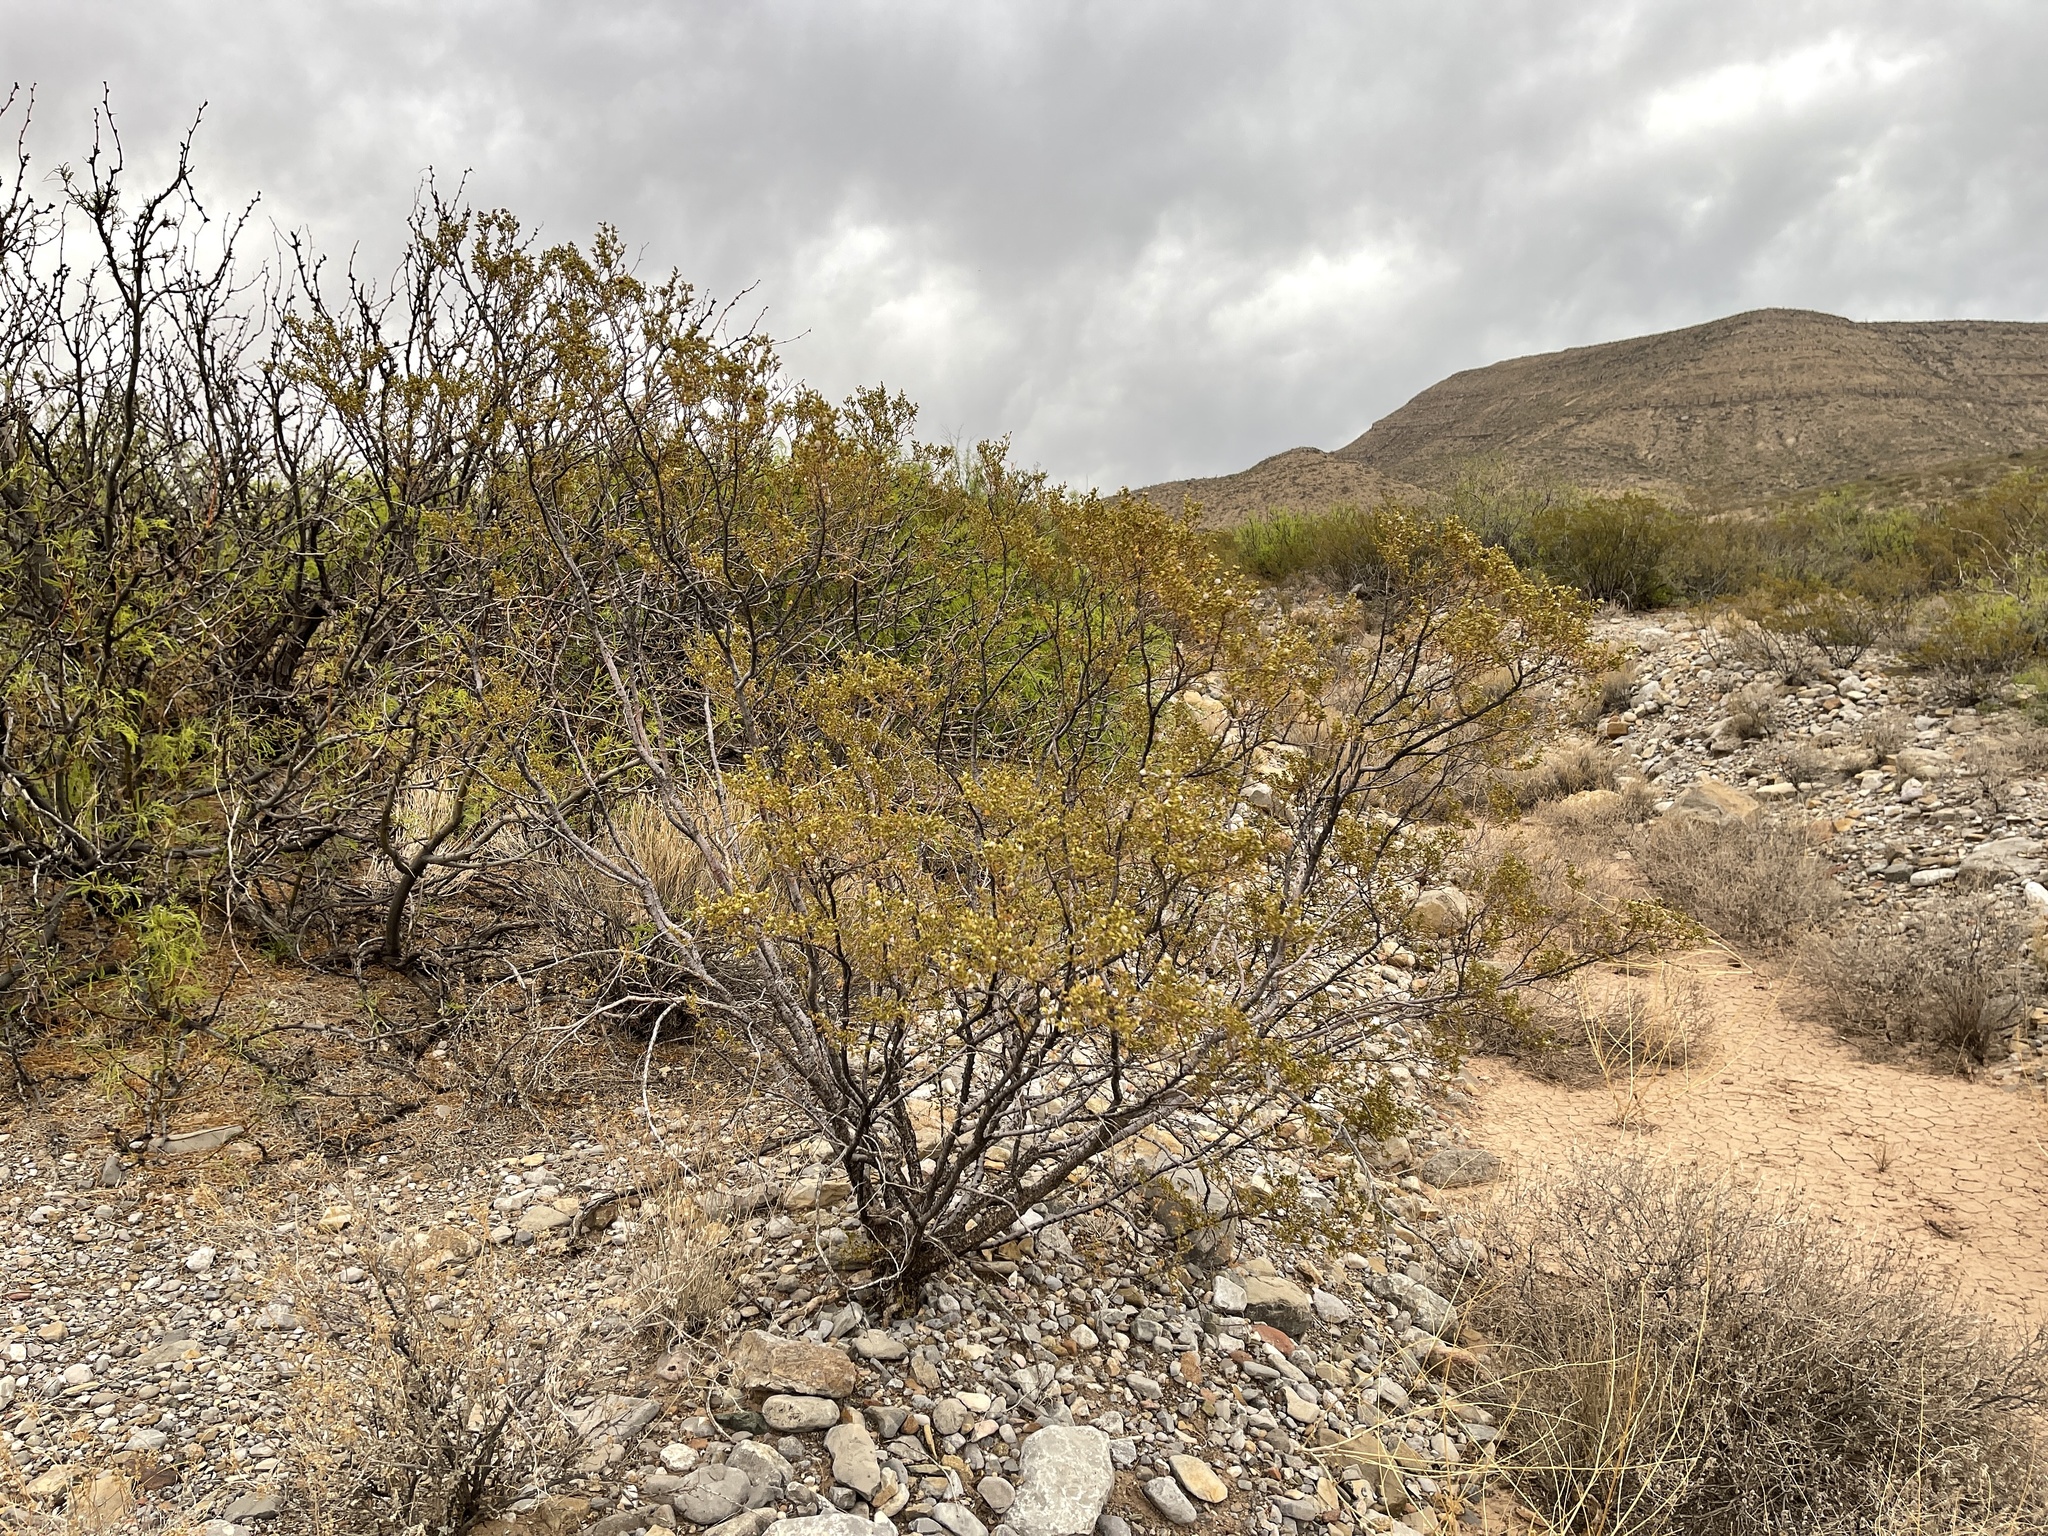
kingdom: Plantae
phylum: Tracheophyta
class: Magnoliopsida
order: Zygophyllales
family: Zygophyllaceae
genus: Larrea
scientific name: Larrea tridentata
